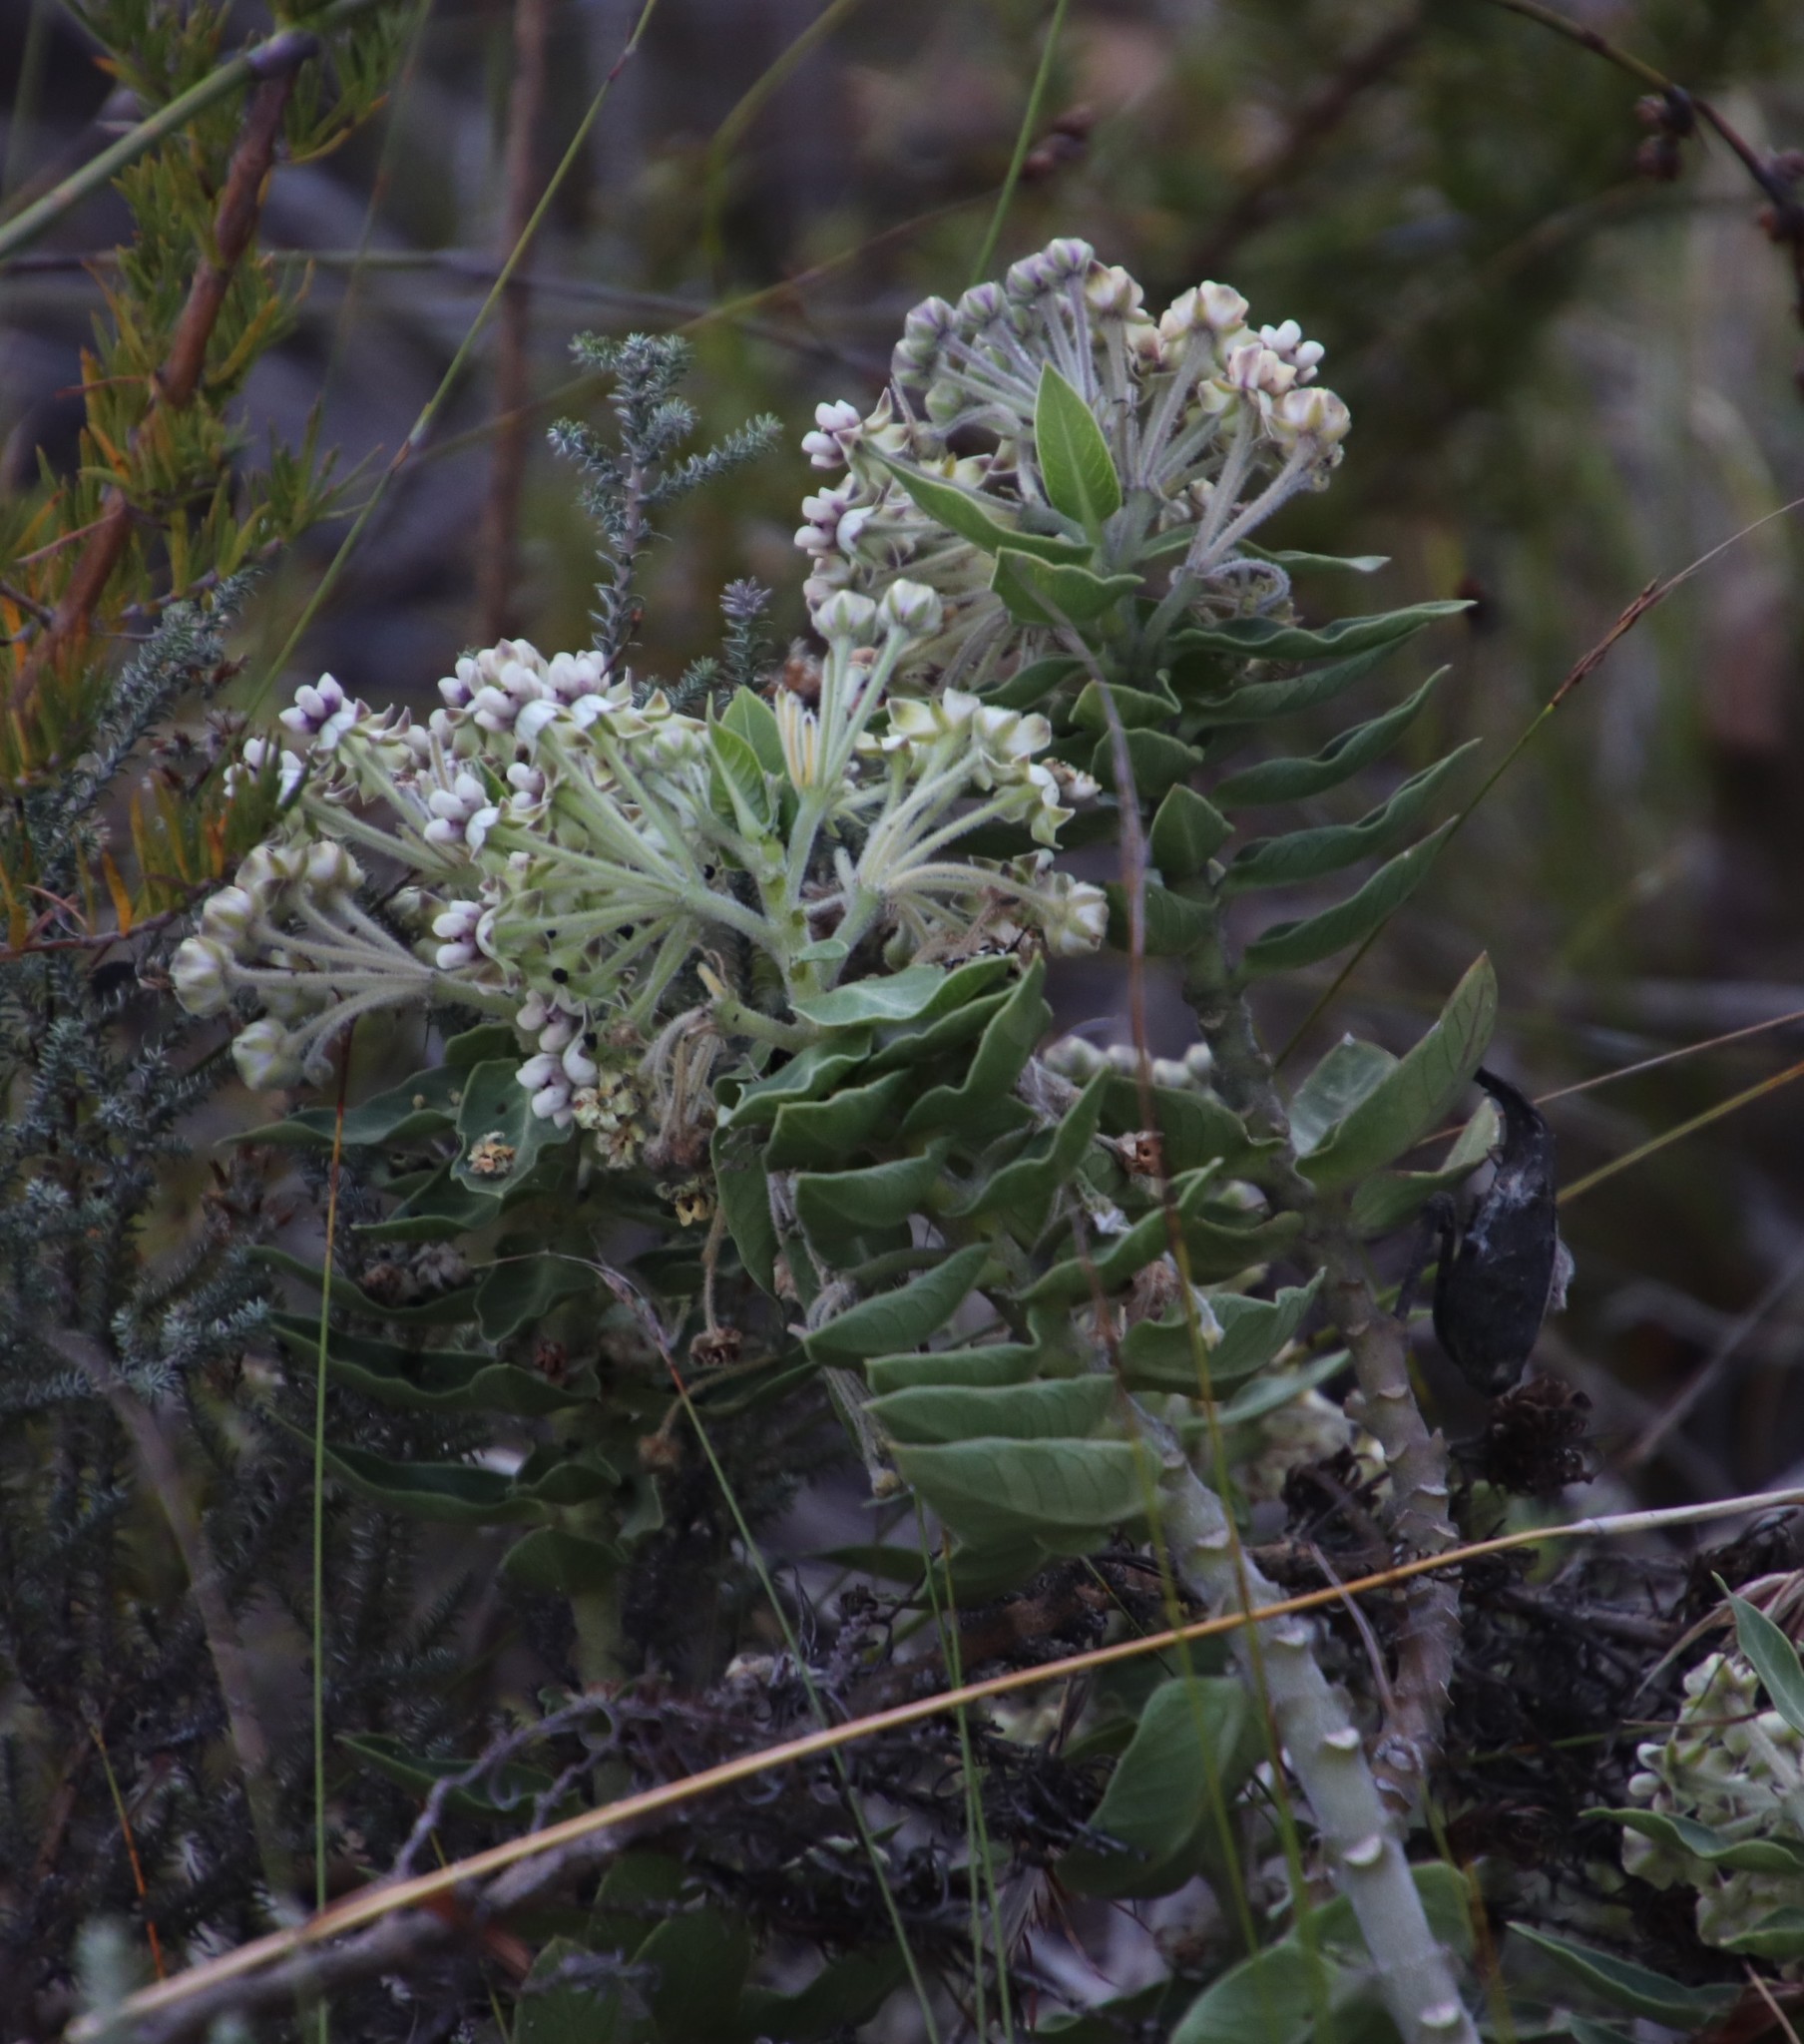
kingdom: Plantae
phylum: Tracheophyta
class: Magnoliopsida
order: Gentianales
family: Apocynaceae
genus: Gomphocarpus
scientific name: Gomphocarpus cancellatus
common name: Wild cotton
